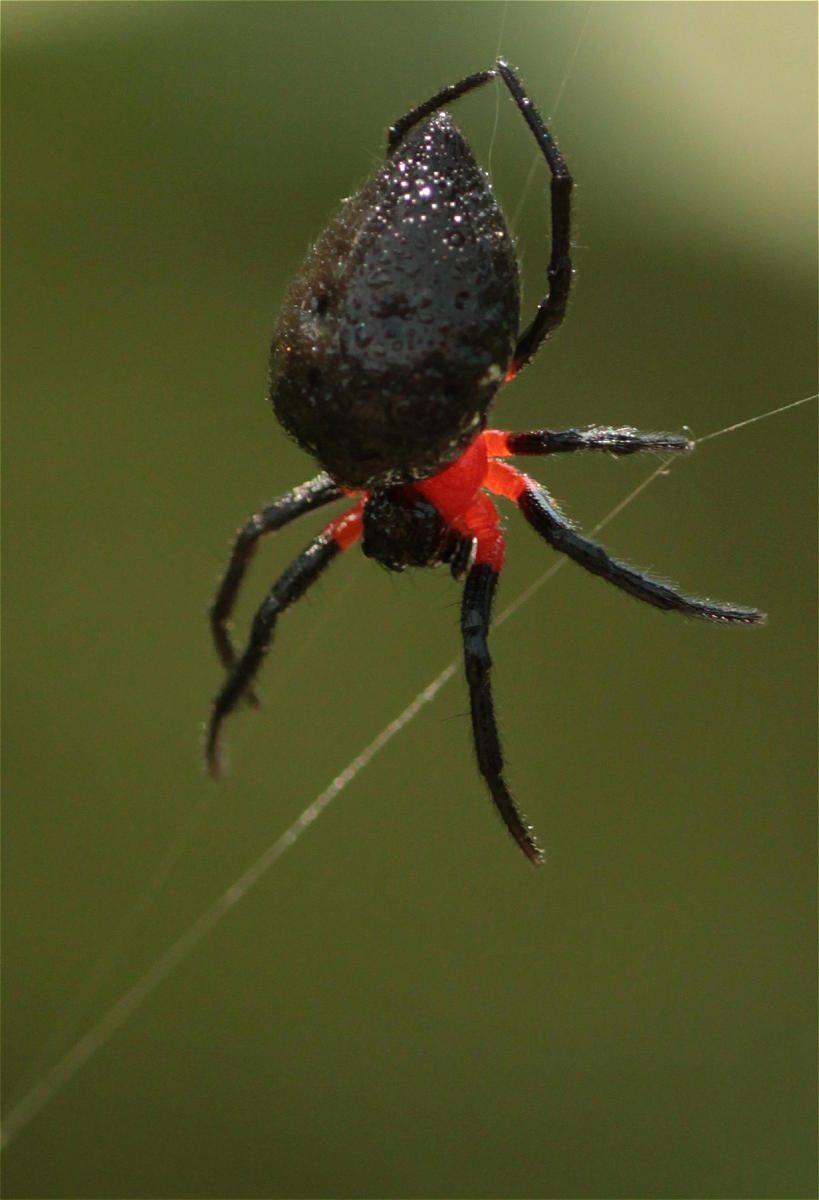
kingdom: Animalia
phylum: Arthropoda
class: Arachnida
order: Araneae
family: Araneidae
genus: Alpaida
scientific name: Alpaida acuta
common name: Orb weavers
